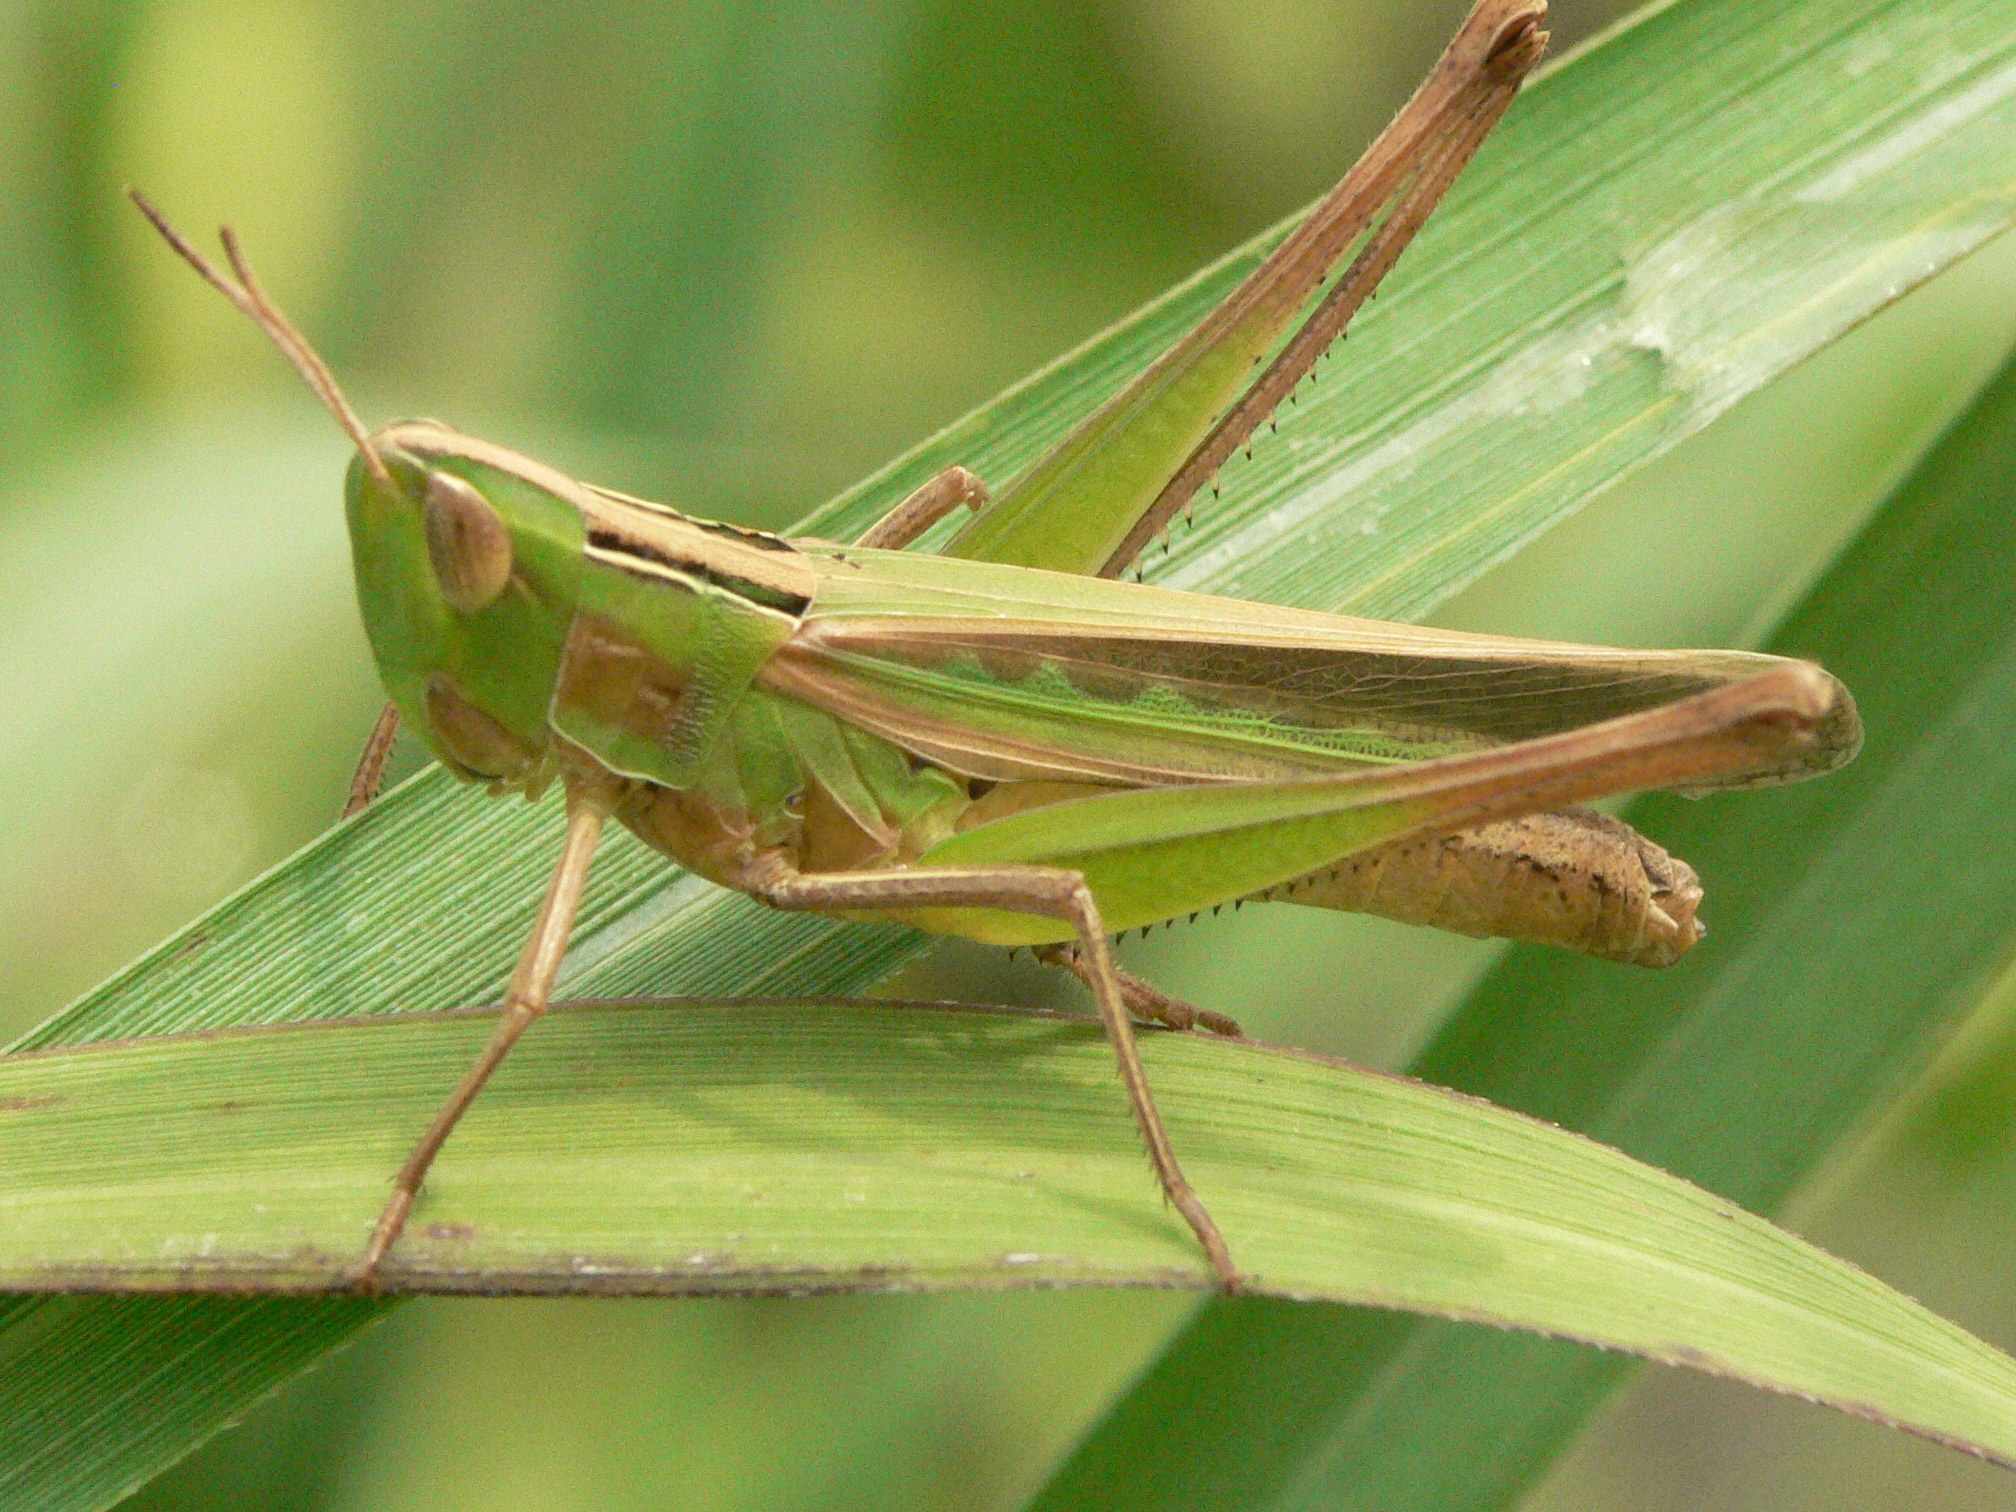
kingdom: Animalia
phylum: Arthropoda
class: Insecta
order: Orthoptera
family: Acrididae
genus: Syrbula
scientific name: Syrbula admirabilis
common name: Handsome grasshopper
